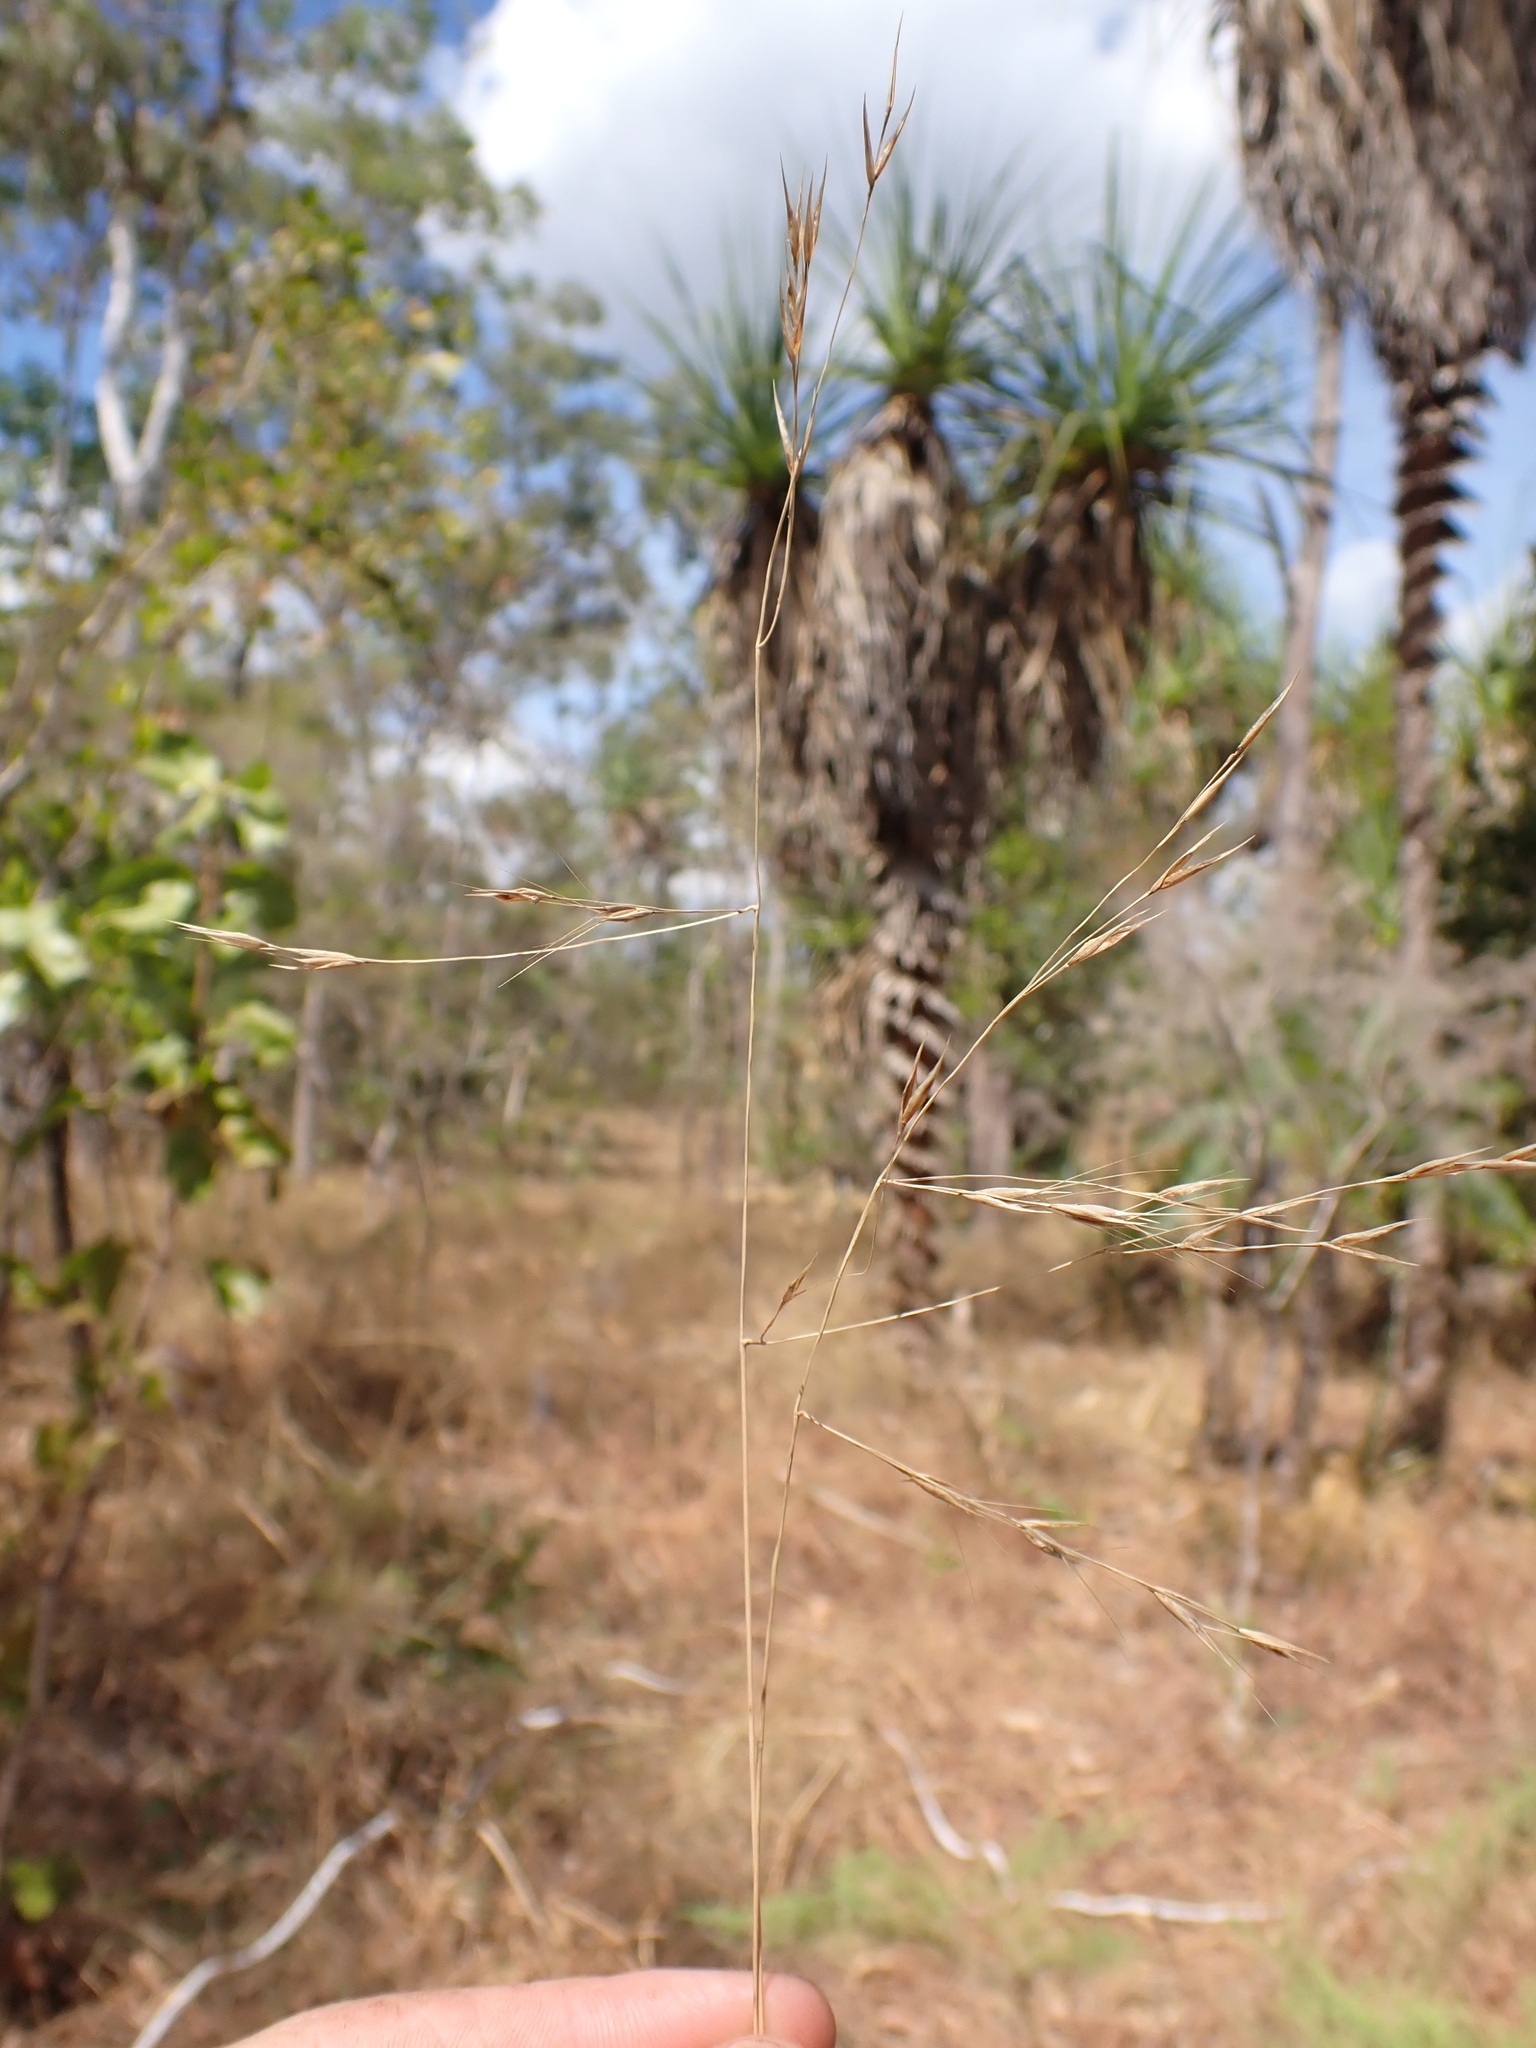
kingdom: Plantae
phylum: Tracheophyta
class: Liliopsida
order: Poales
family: Poaceae
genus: Eriachne
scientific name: Eriachne triseta
